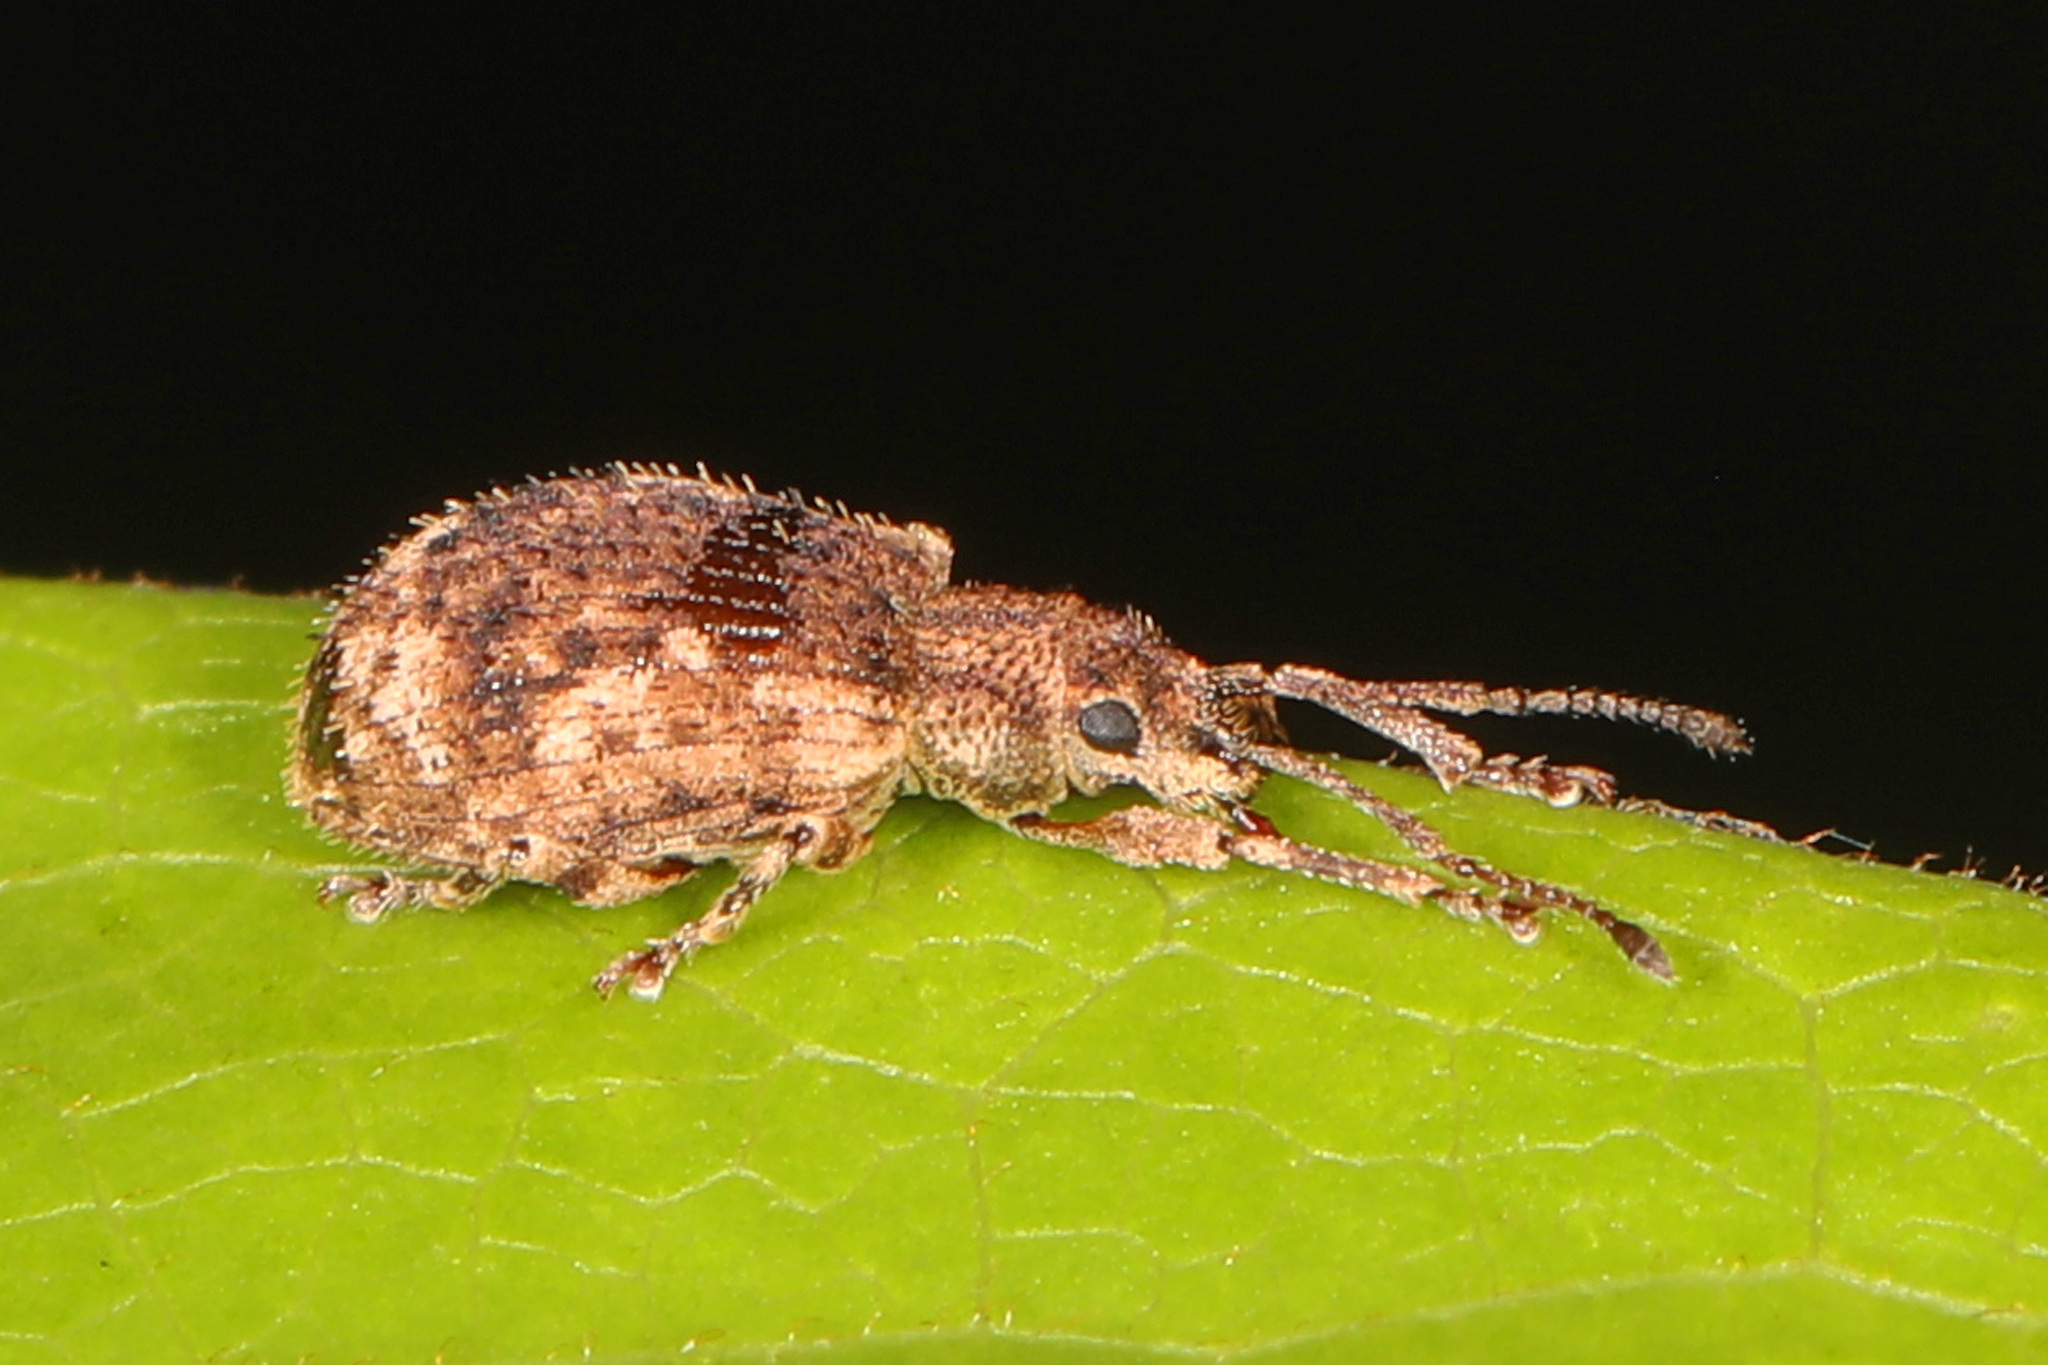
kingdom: Animalia
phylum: Arthropoda
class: Insecta
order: Coleoptera
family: Curculionidae
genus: Pseudoedophrys
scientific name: Pseudoedophrys hilleri
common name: Weevil
